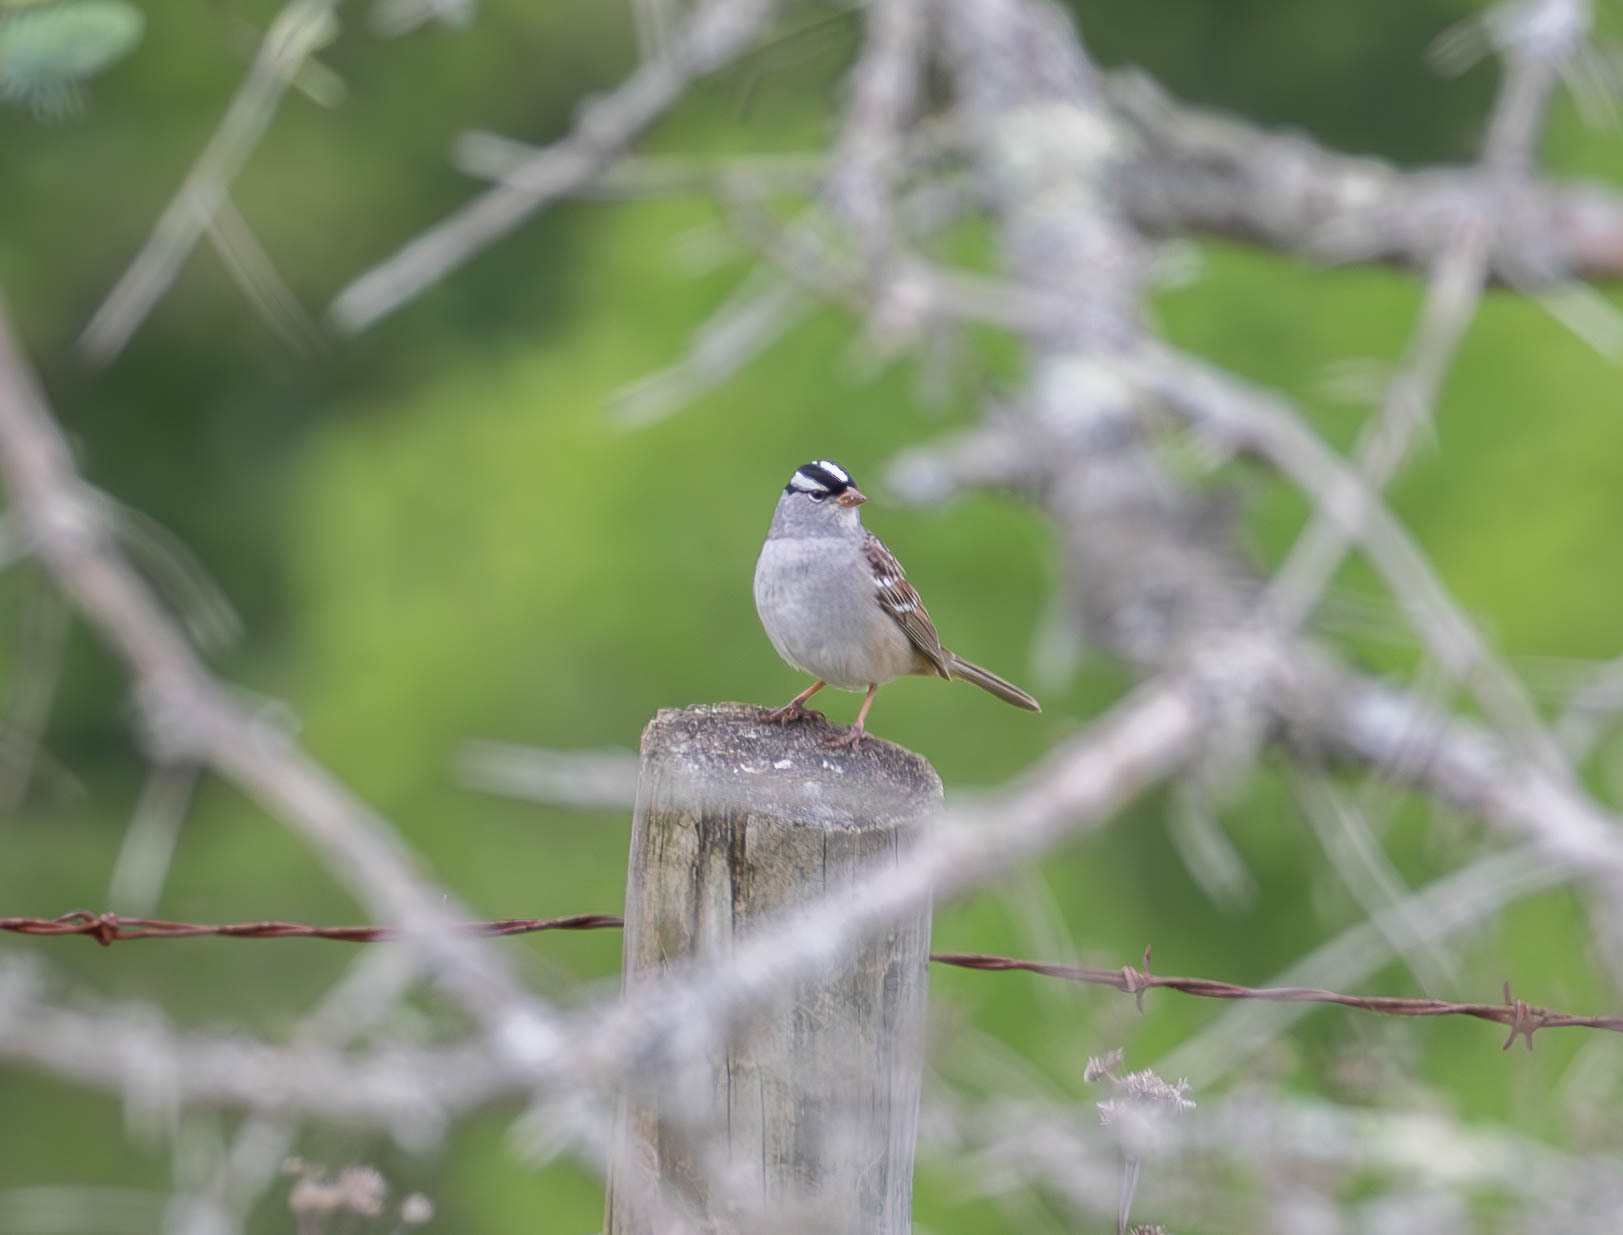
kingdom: Animalia
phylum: Chordata
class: Aves
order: Passeriformes
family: Passerellidae
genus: Zonotrichia
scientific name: Zonotrichia leucophrys
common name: White-crowned sparrow
